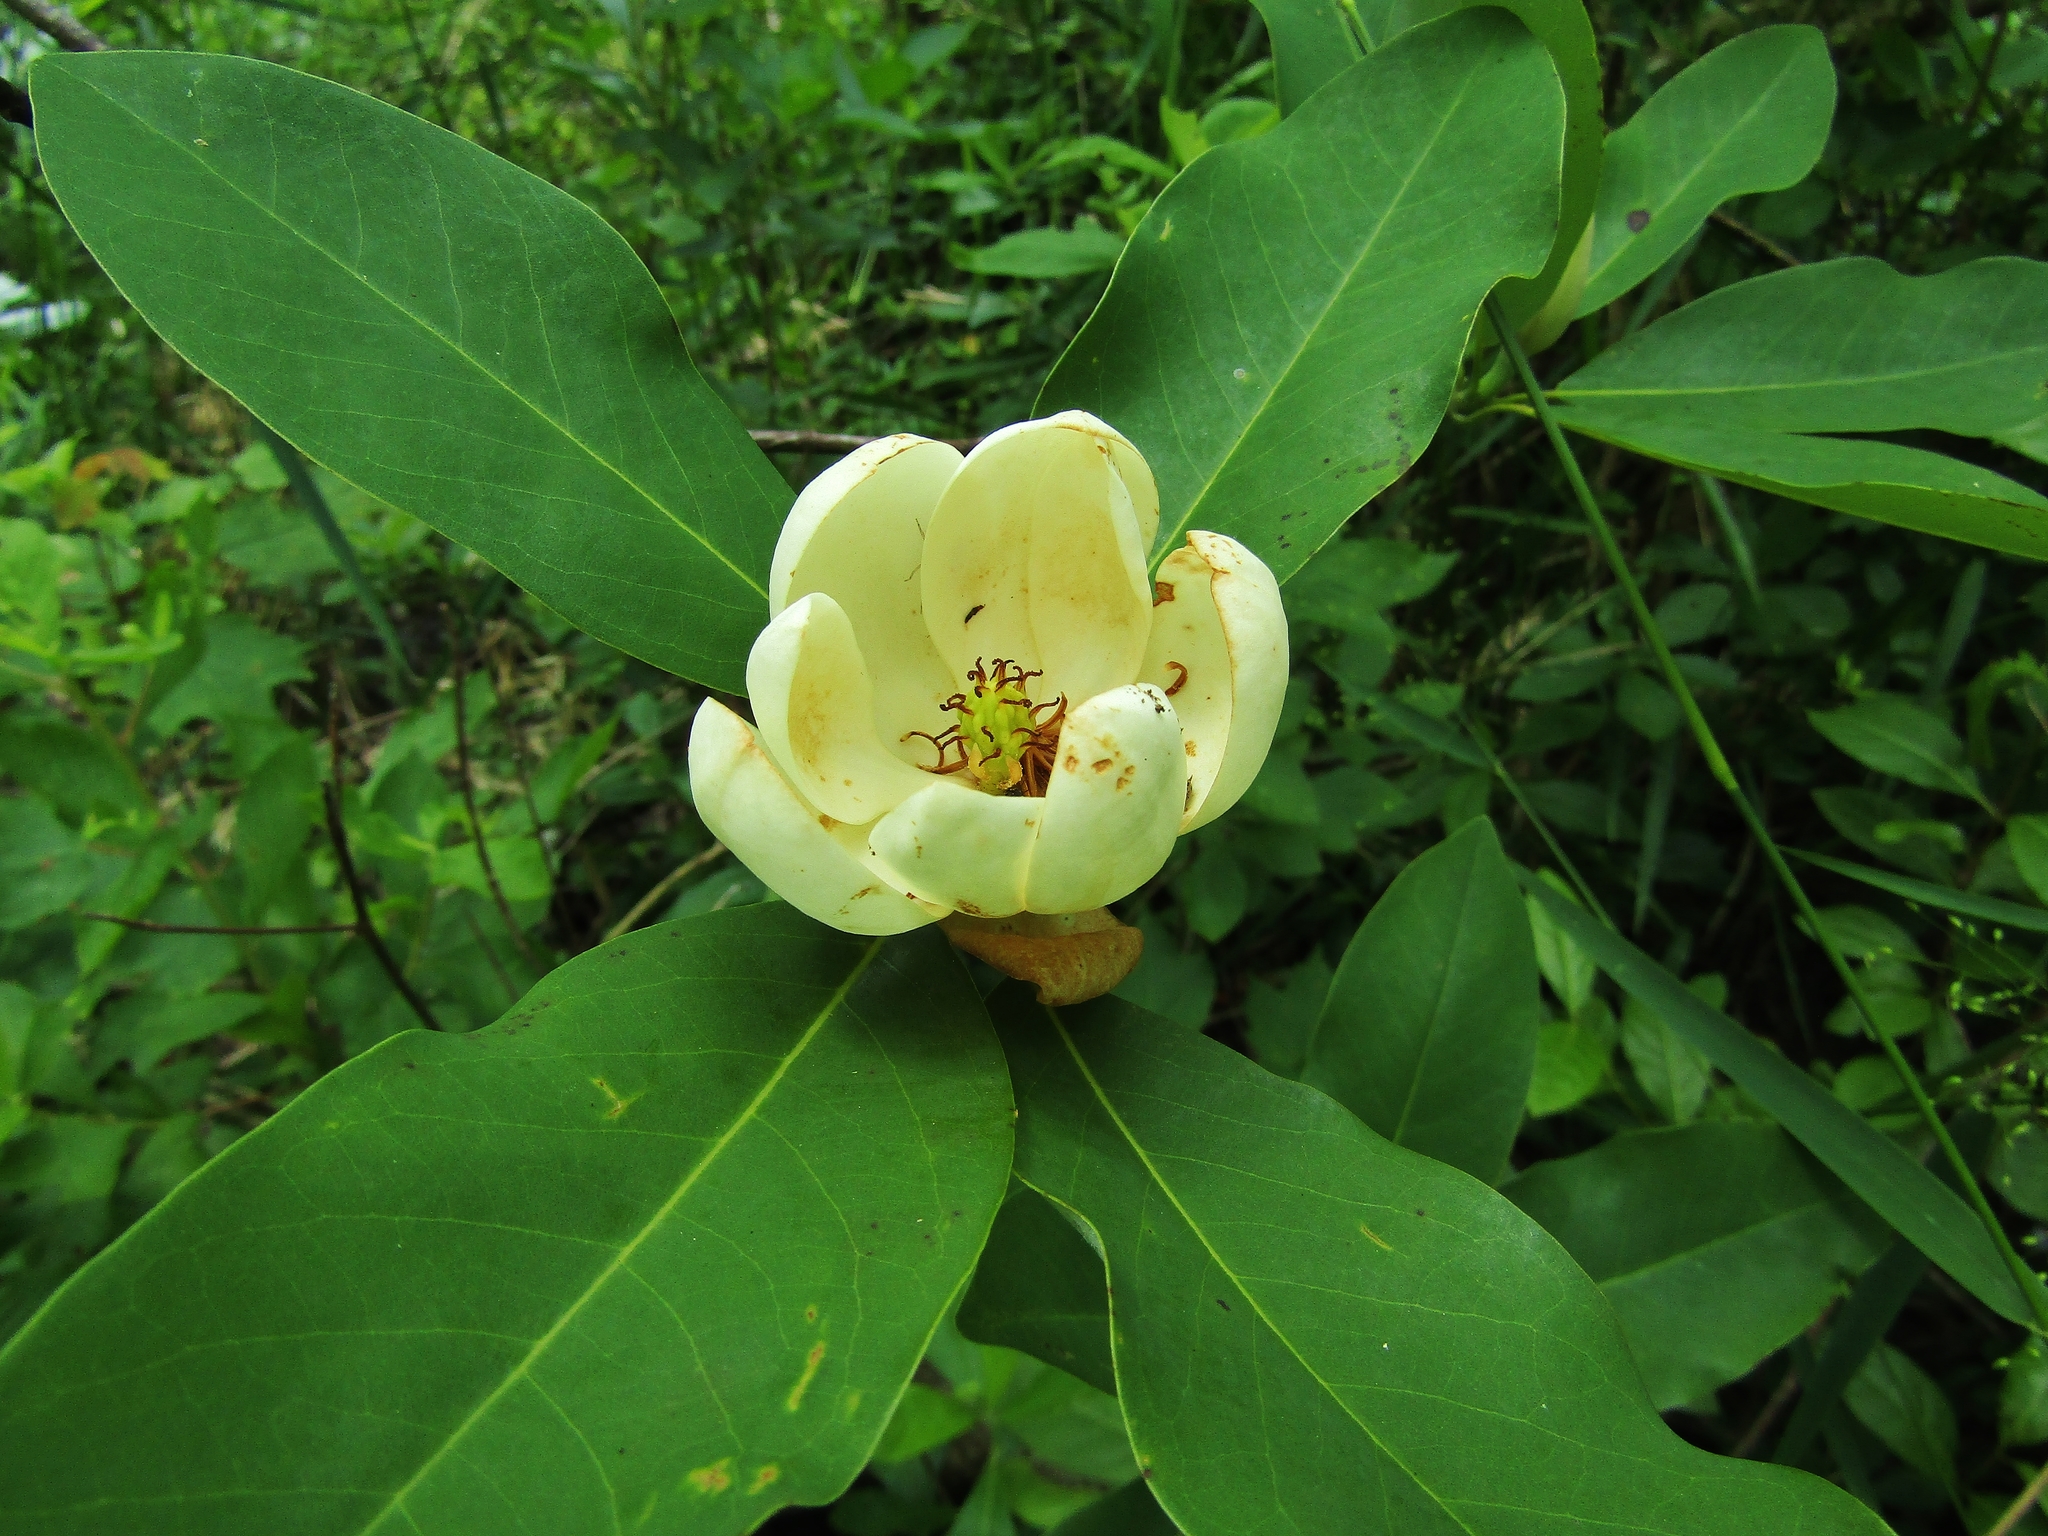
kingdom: Plantae
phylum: Tracheophyta
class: Magnoliopsida
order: Magnoliales
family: Magnoliaceae
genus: Magnolia
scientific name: Magnolia virginiana
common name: Swamp bay
